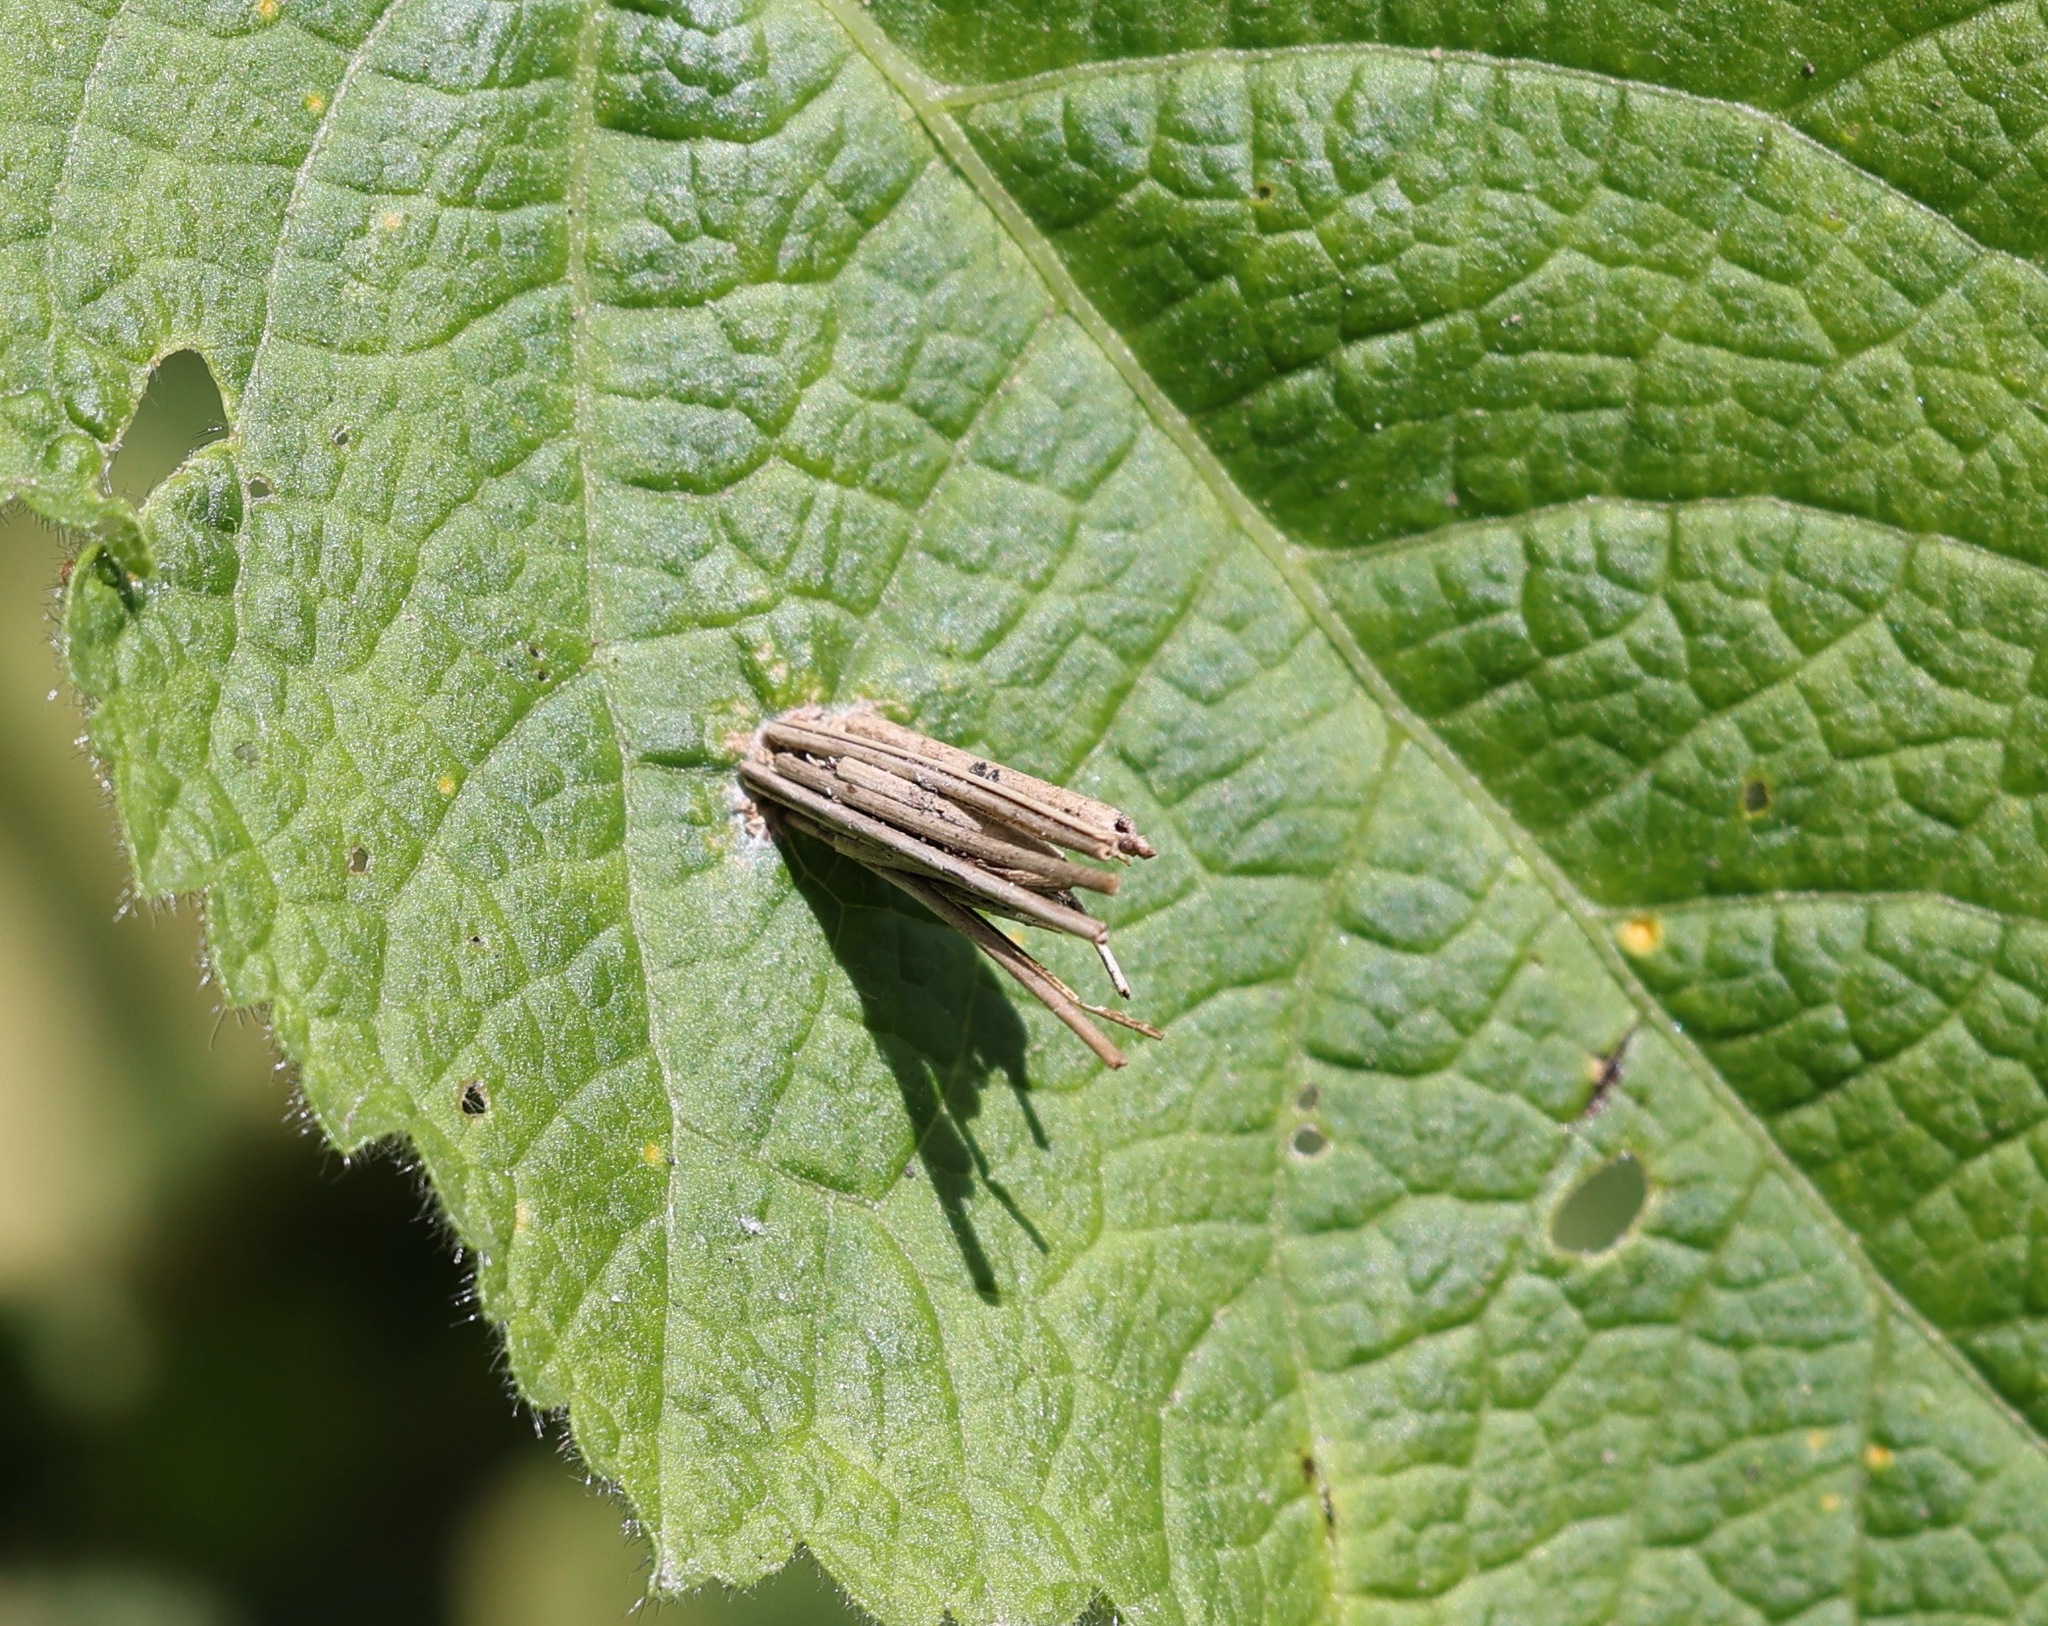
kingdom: Animalia
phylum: Arthropoda
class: Insecta
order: Lepidoptera
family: Psychidae
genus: Psyche
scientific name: Psyche casta
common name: Common sweep
